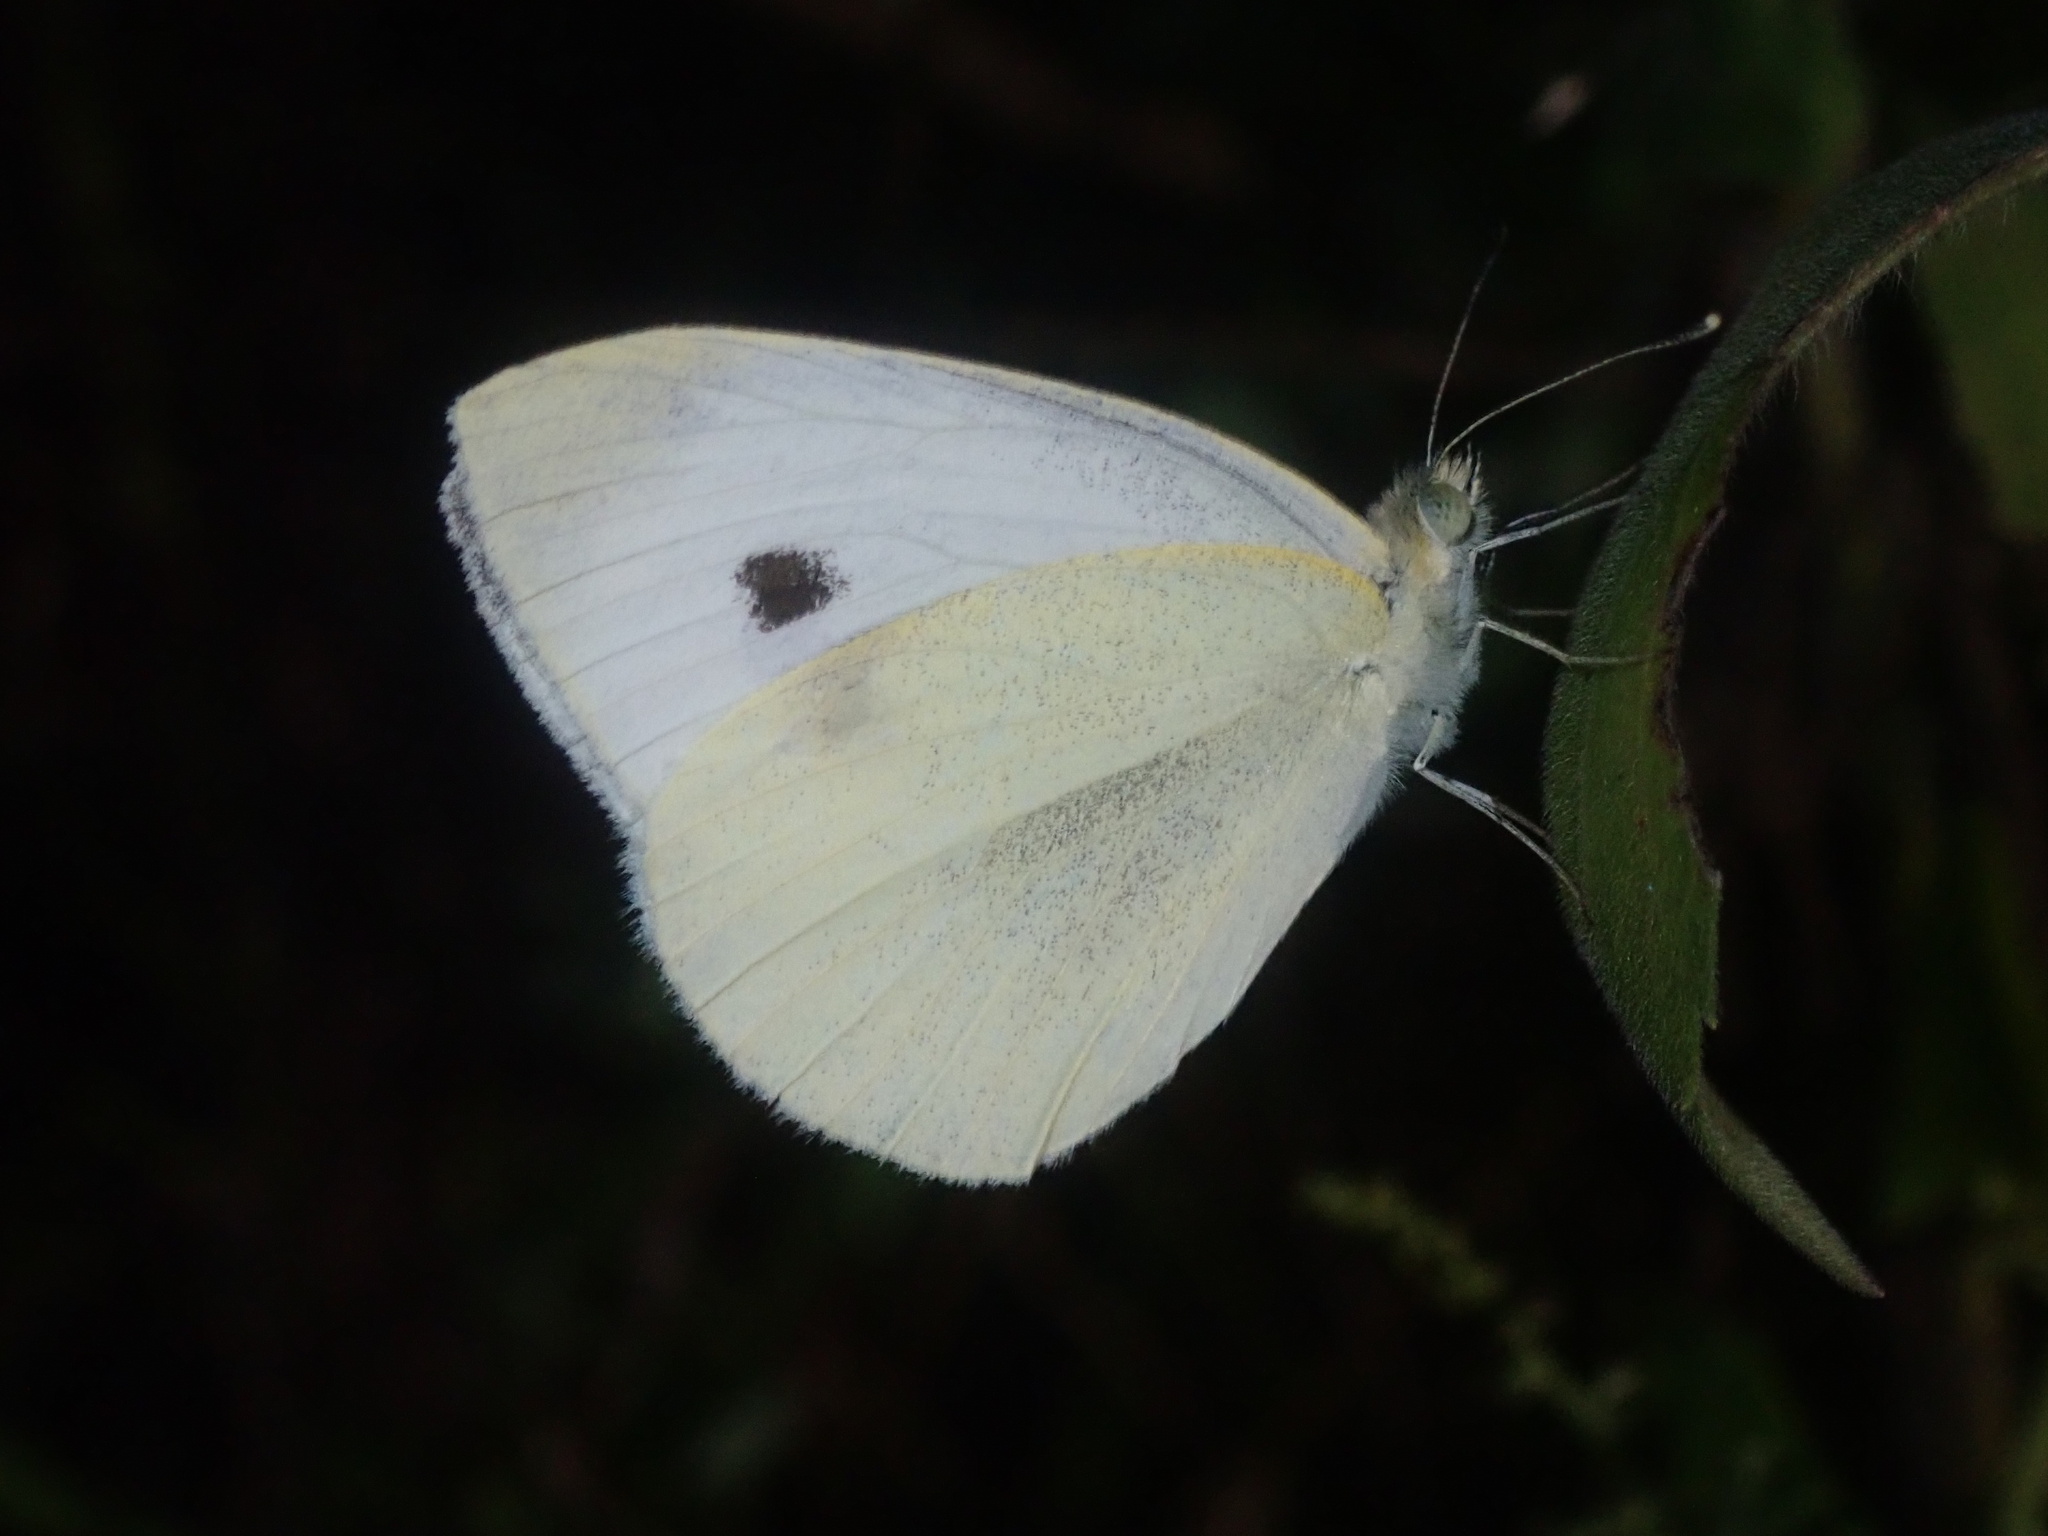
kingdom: Animalia
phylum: Arthropoda
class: Insecta
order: Lepidoptera
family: Pieridae
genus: Pieris
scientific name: Pieris rapae
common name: Small white
